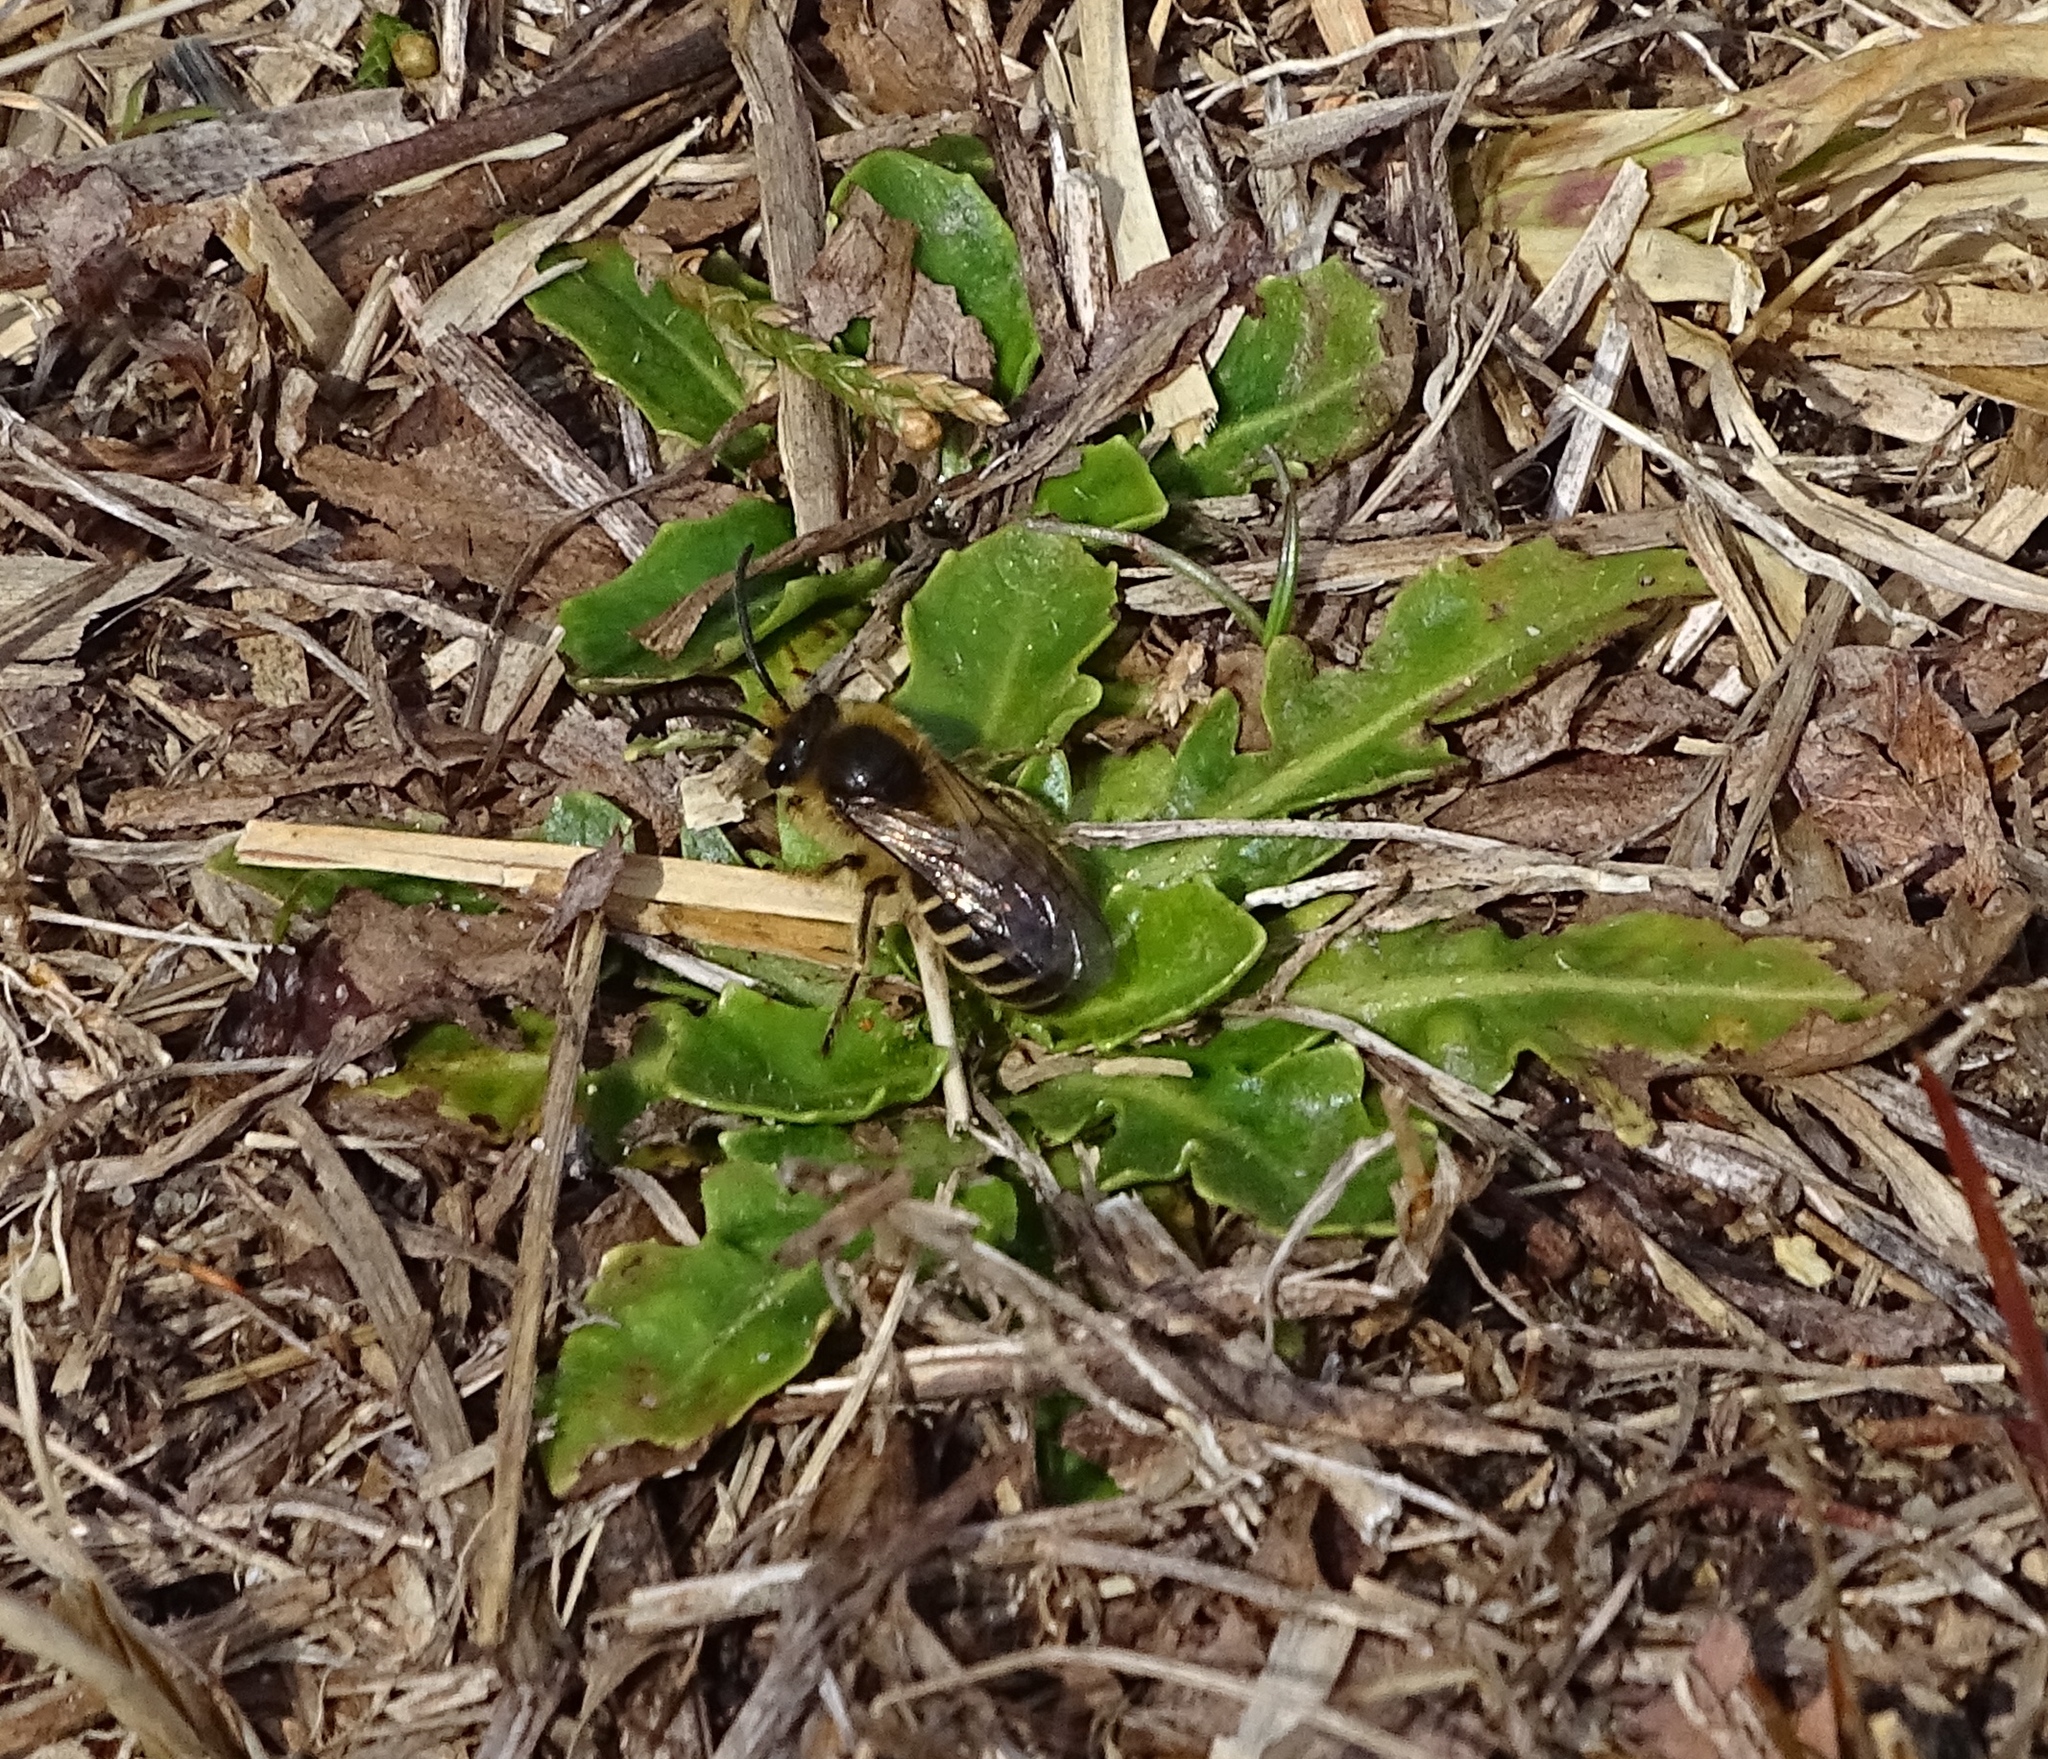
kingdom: Animalia
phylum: Arthropoda
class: Insecta
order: Hymenoptera
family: Colletidae
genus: Colletes
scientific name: Colletes inaequalis
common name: Unequal cellophane bee
